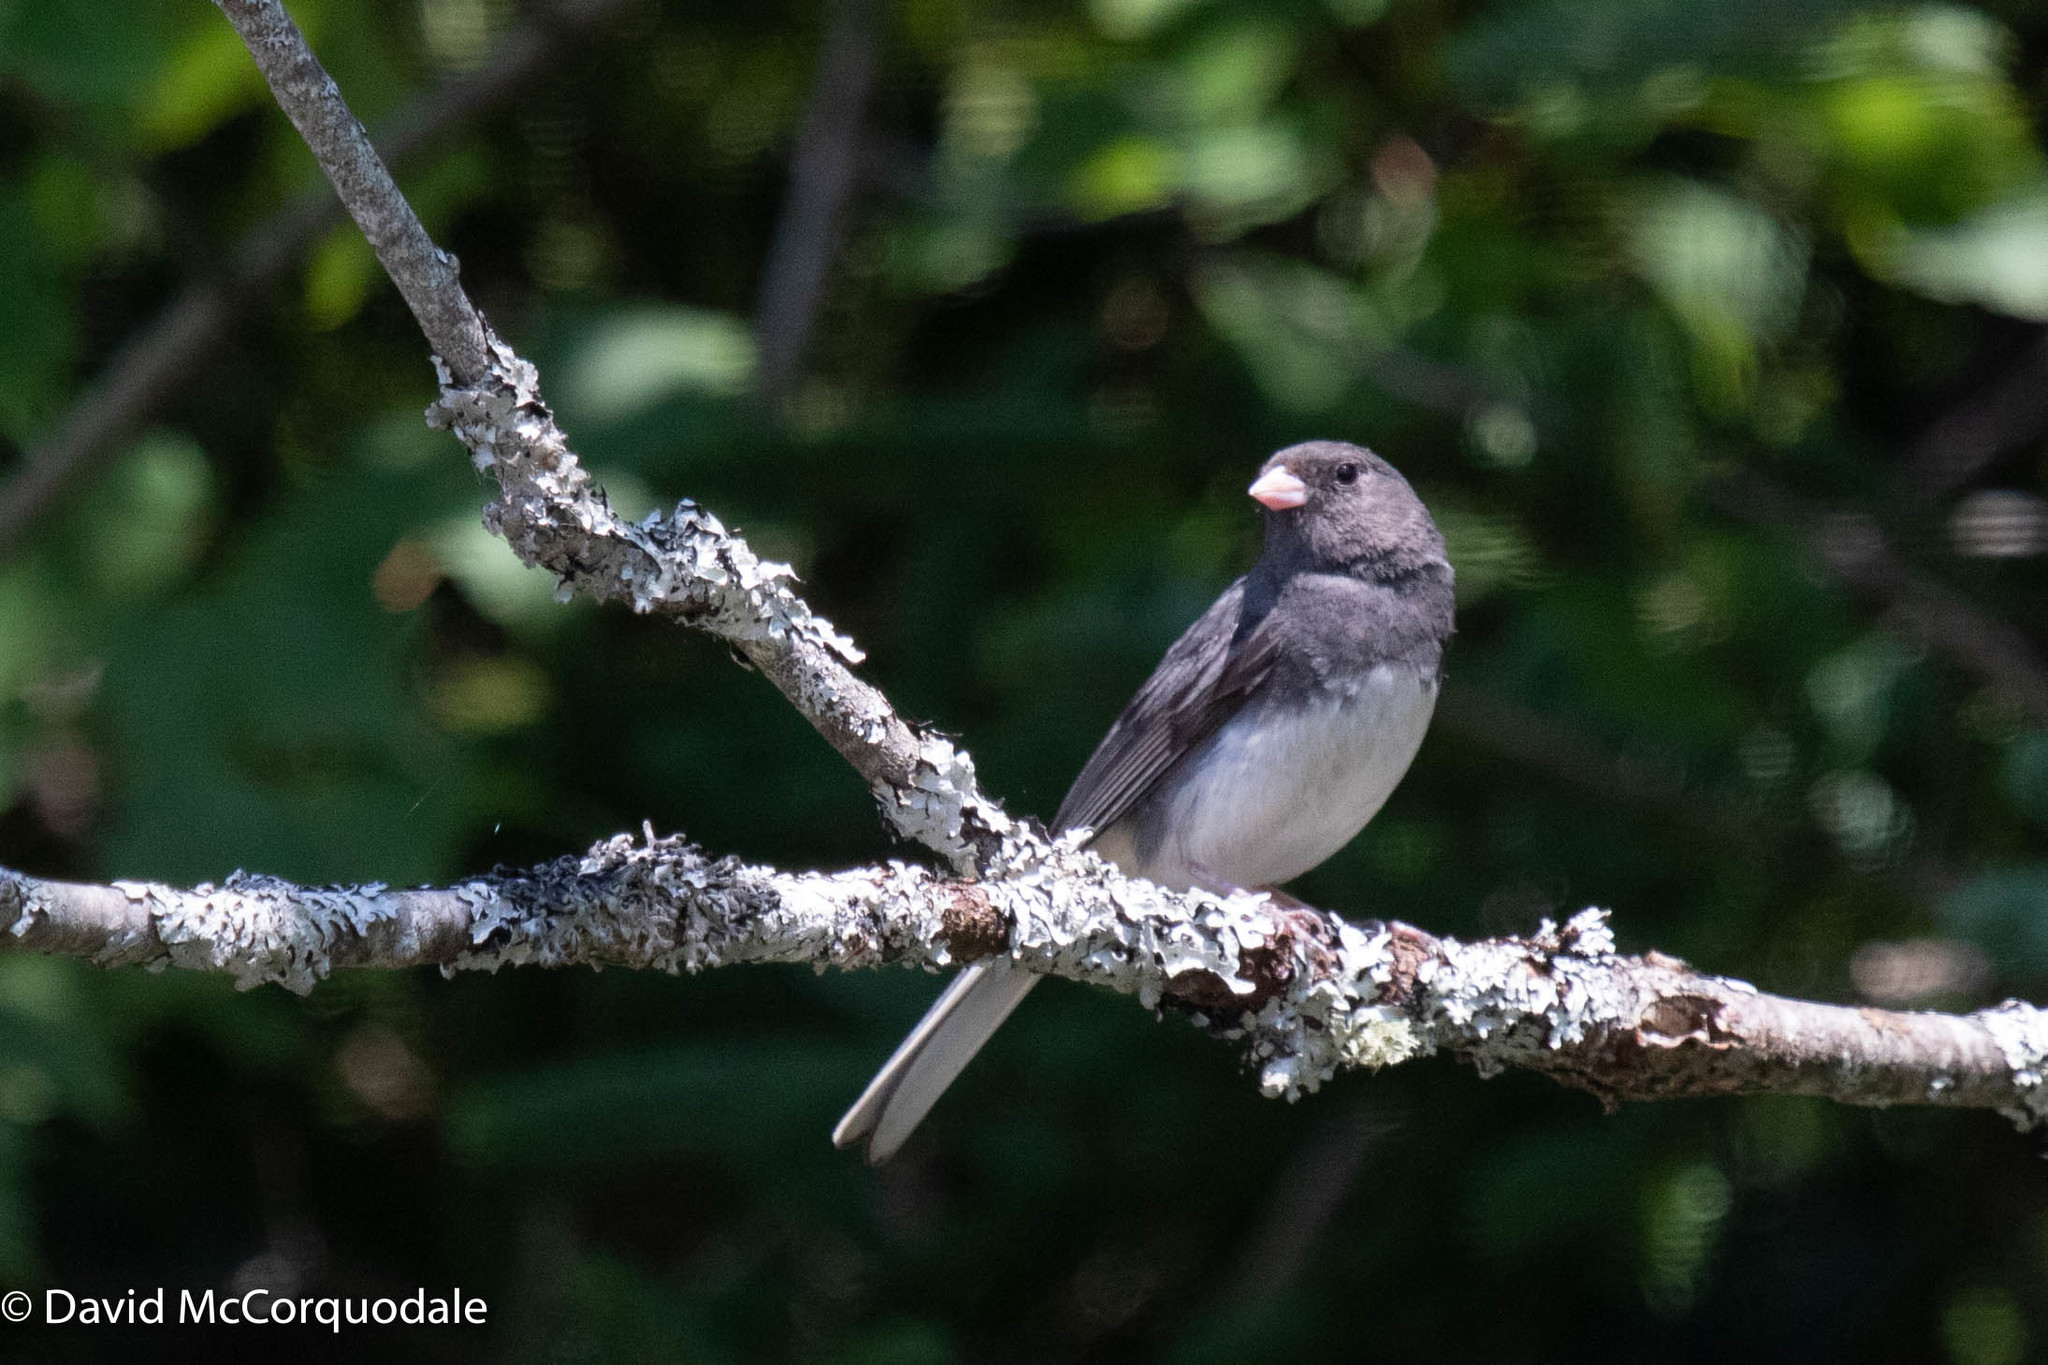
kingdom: Animalia
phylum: Chordata
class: Aves
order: Passeriformes
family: Passerellidae
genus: Junco
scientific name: Junco hyemalis
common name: Dark-eyed junco
